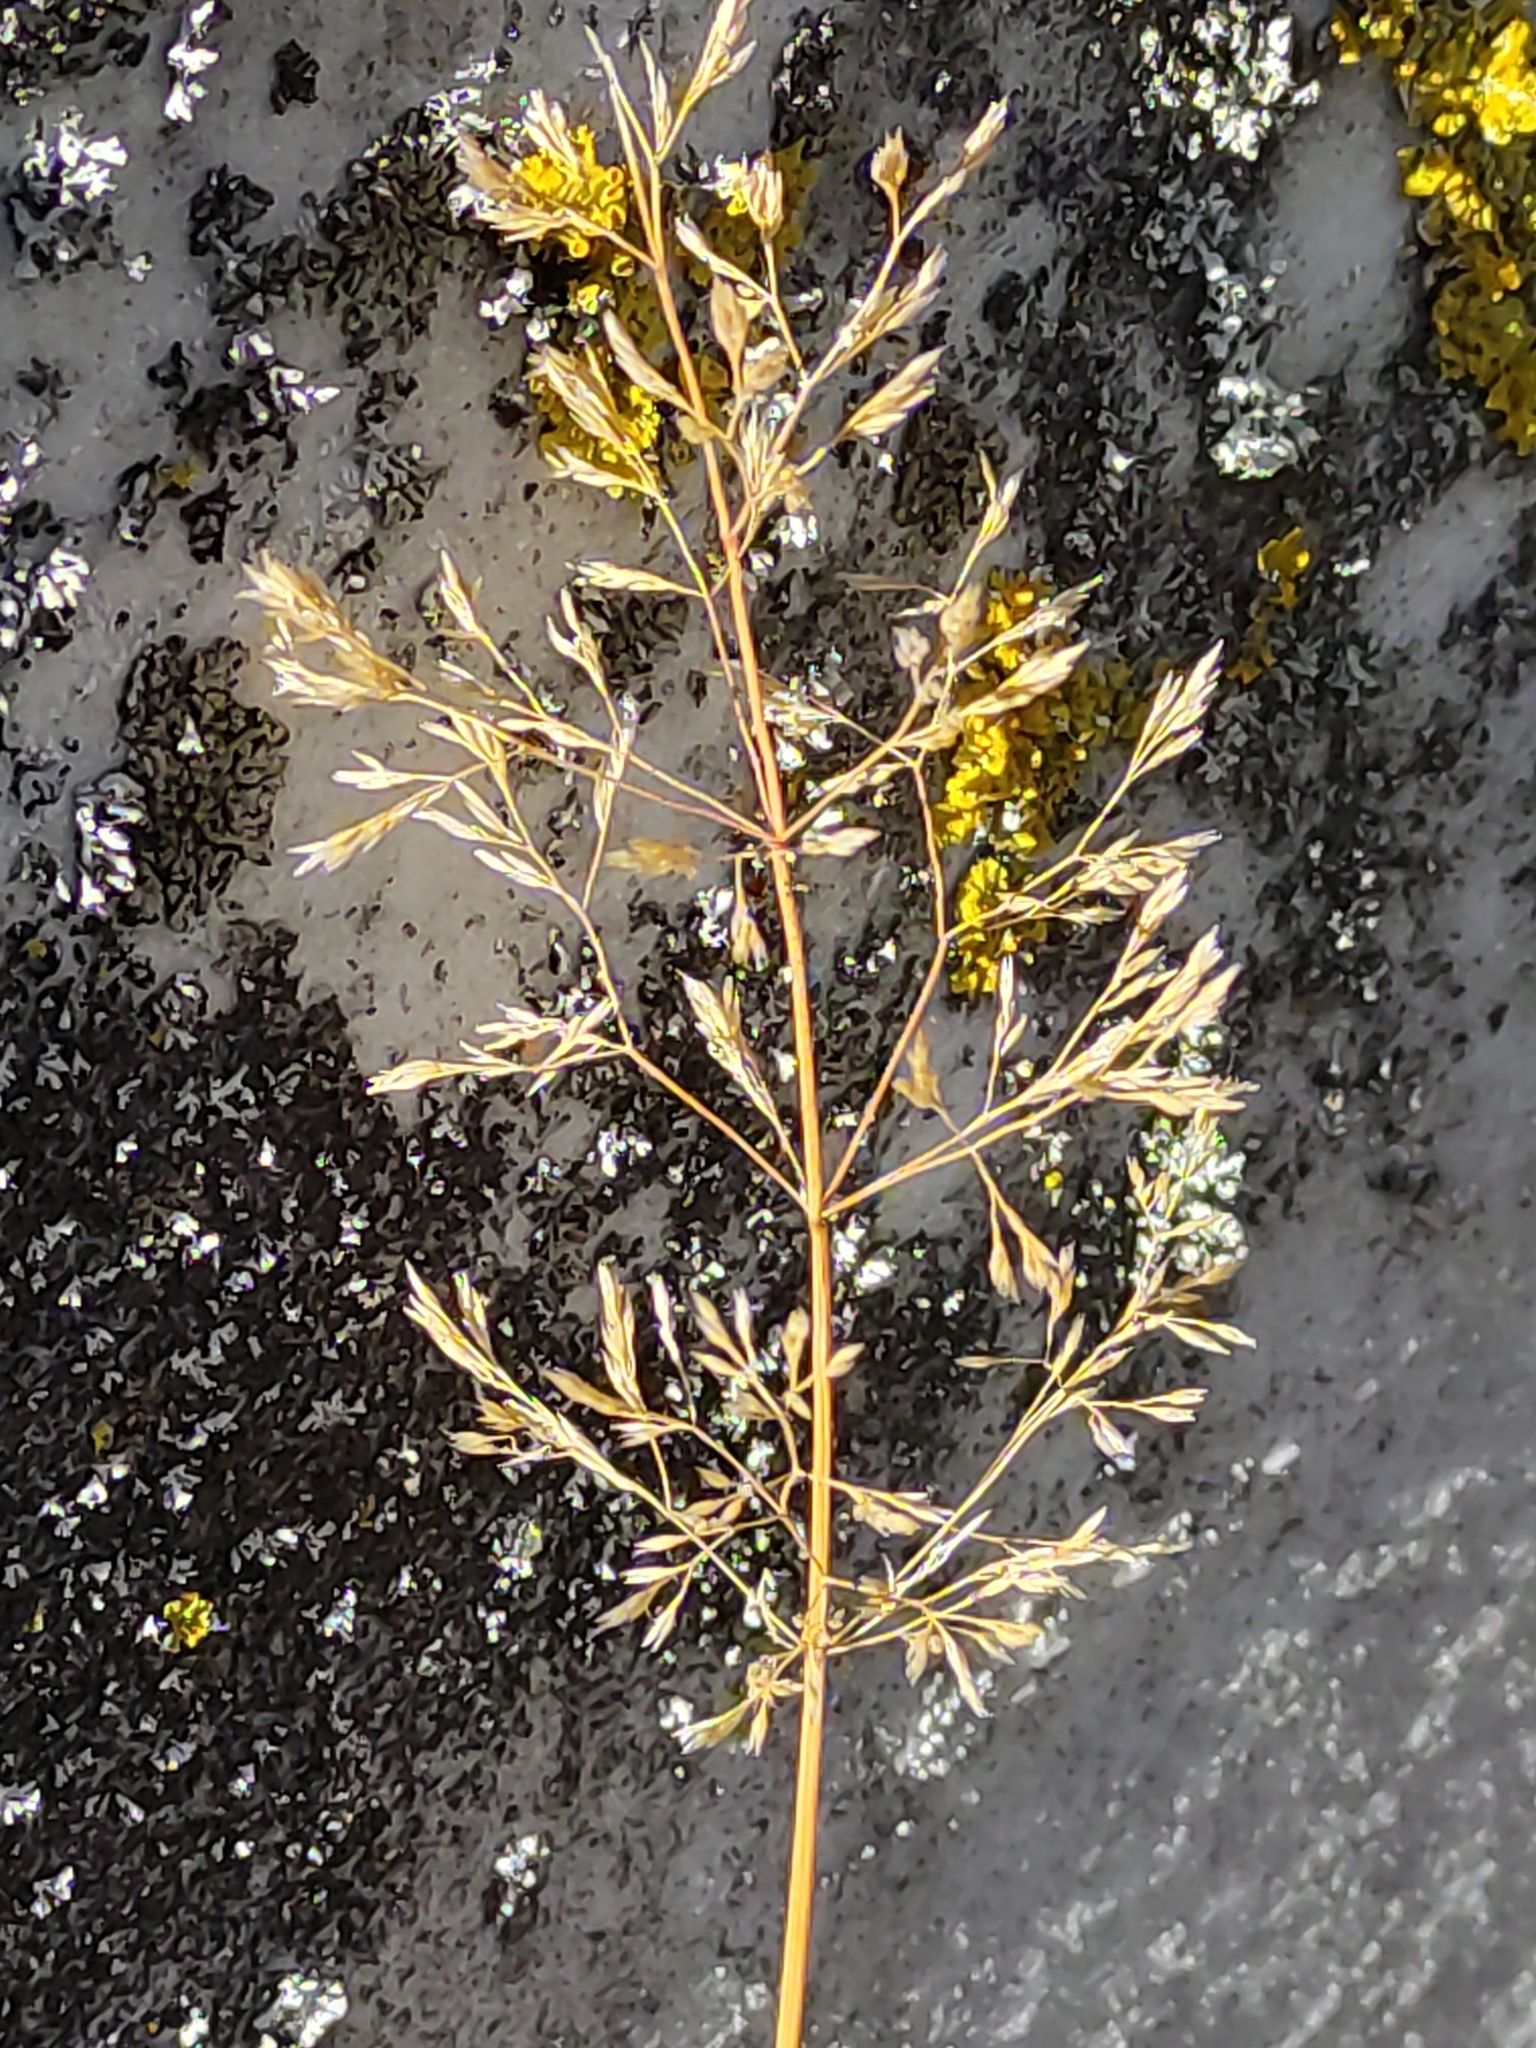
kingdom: Plantae
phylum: Tracheophyta
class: Liliopsida
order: Poales
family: Poaceae
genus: Agrostis
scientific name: Agrostis capillaris
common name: Colonial bentgrass
